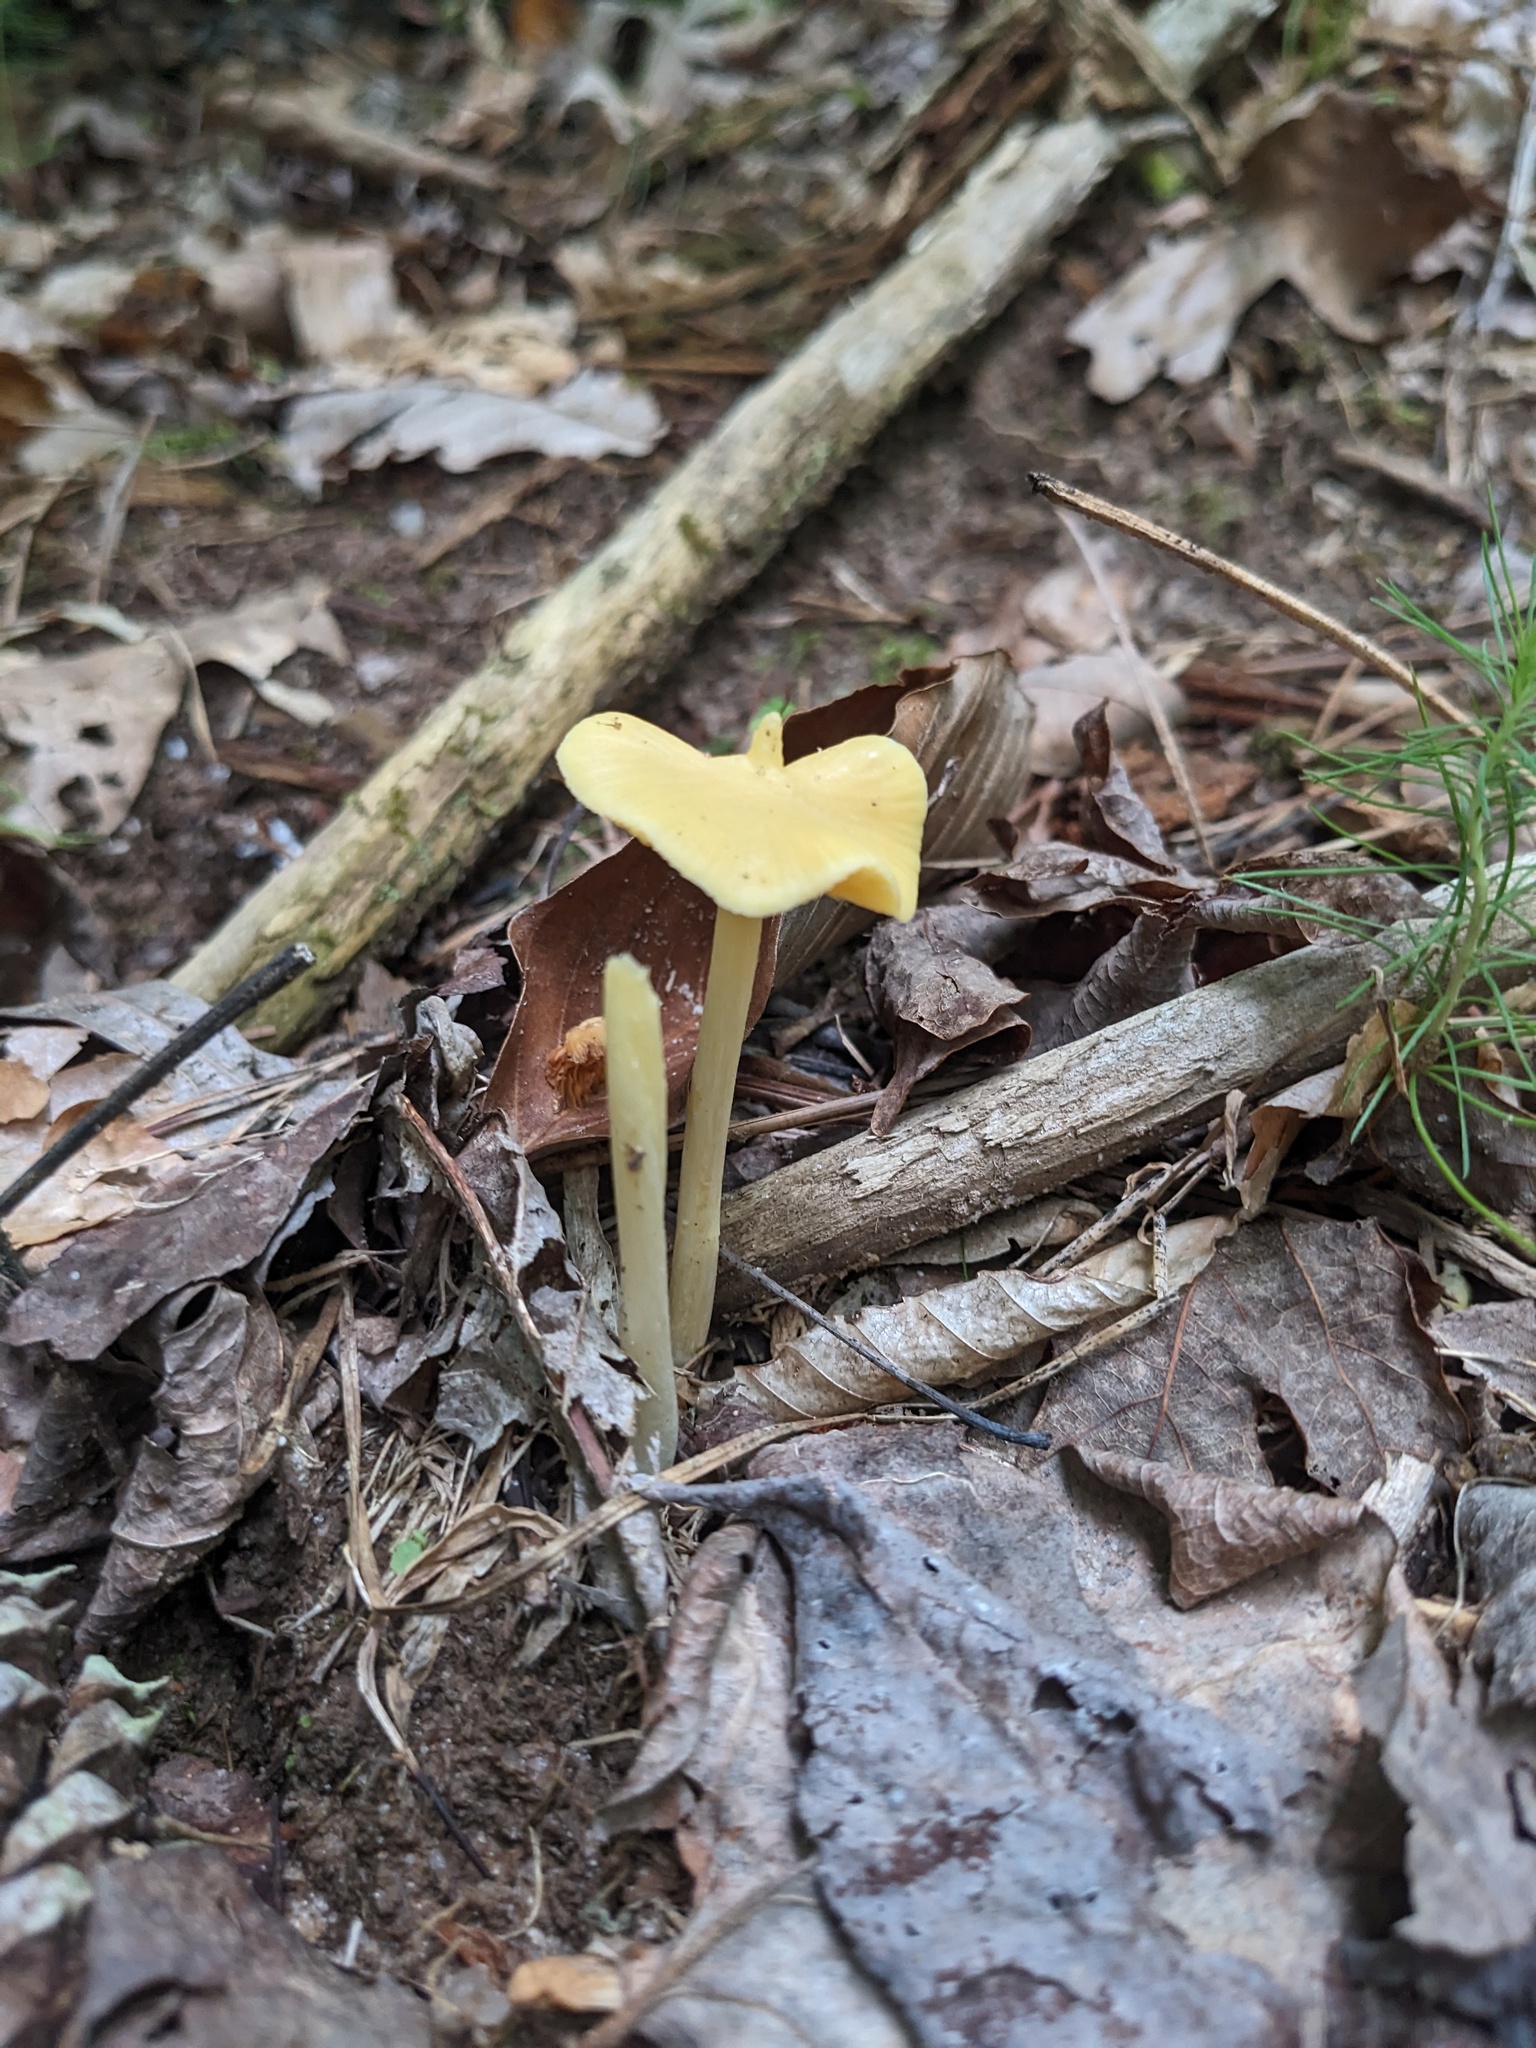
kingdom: Fungi
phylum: Basidiomycota
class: Agaricomycetes
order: Agaricales
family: Entolomataceae
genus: Entoloma
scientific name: Entoloma murrayi
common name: Yellow unicorn entoloma
